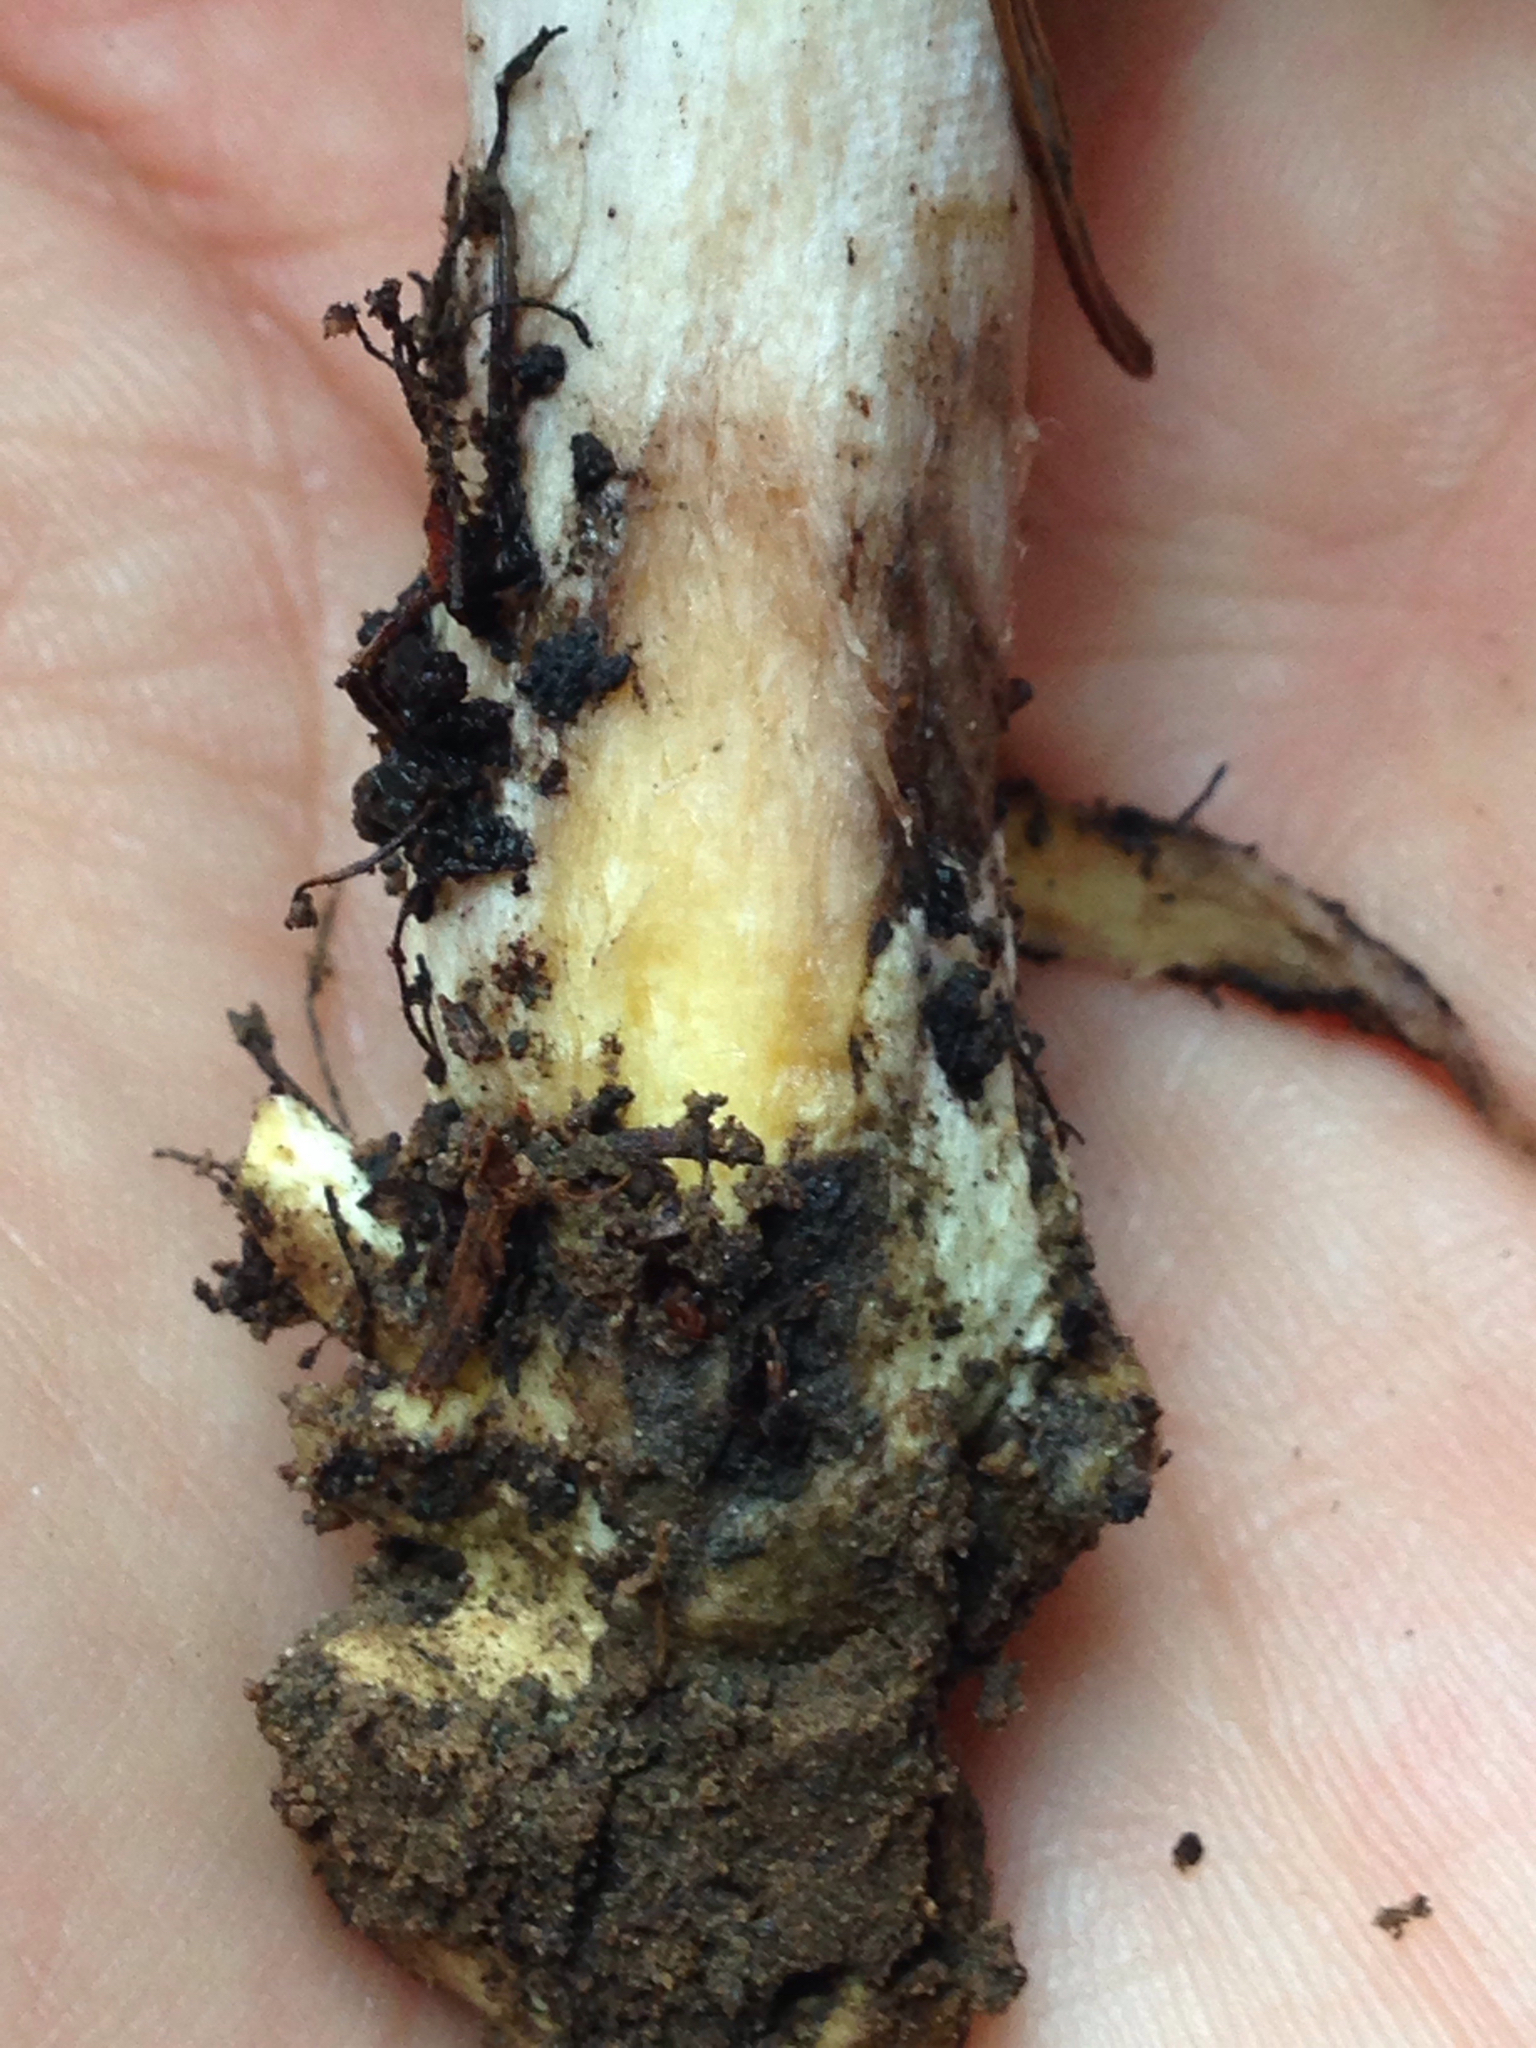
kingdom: Fungi
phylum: Basidiomycota
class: Agaricomycetes
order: Boletales
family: Gomphidiaceae
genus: Gomphidius
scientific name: Gomphidius oregonensis
